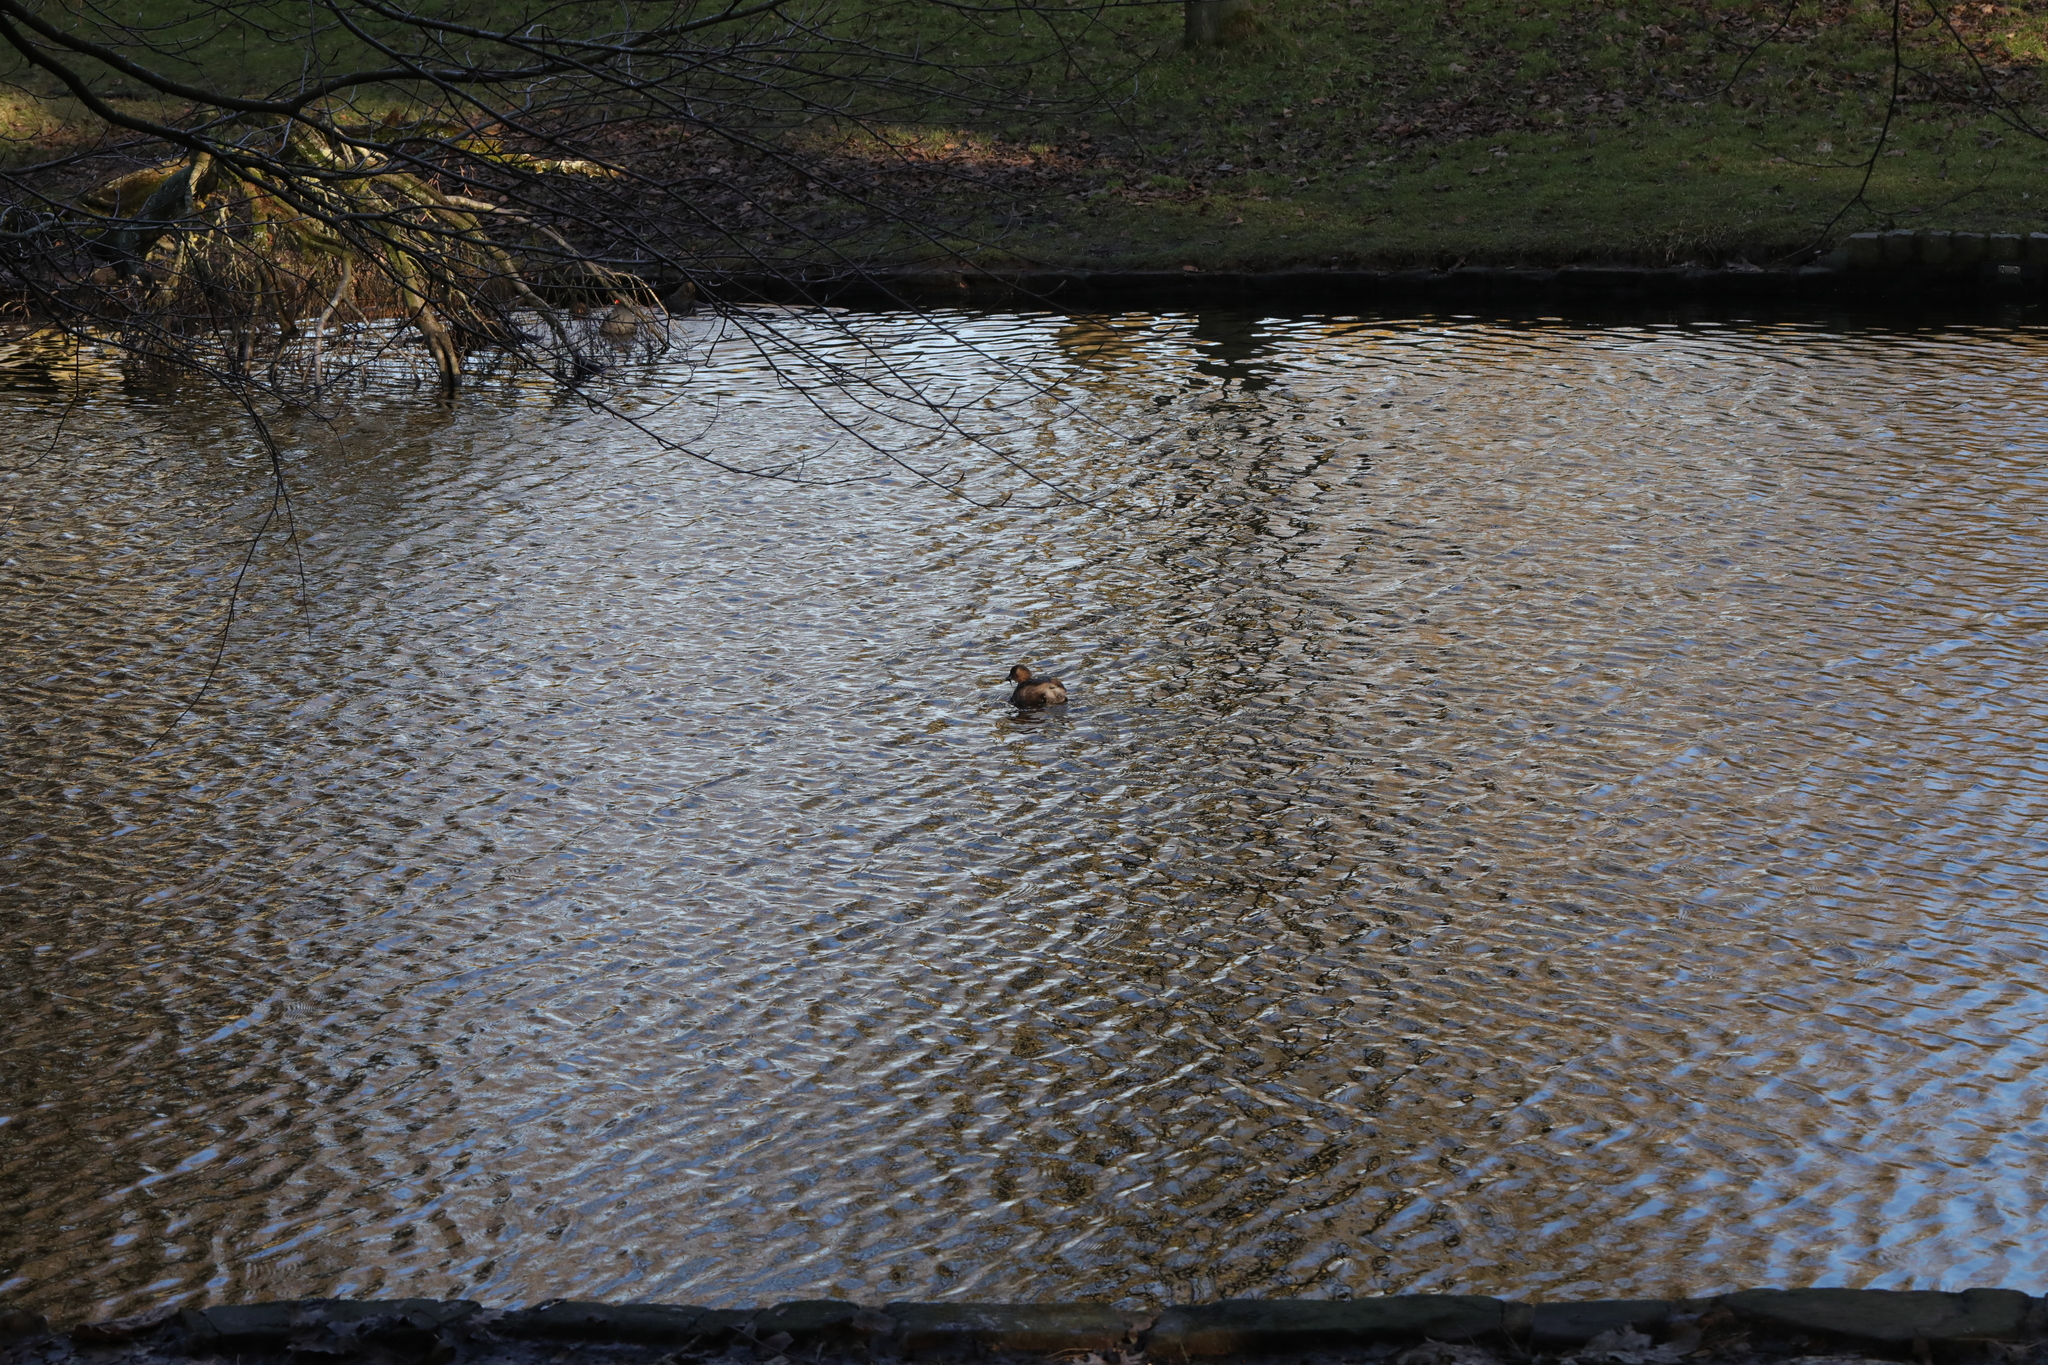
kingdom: Animalia
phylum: Chordata
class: Aves
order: Podicipediformes
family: Podicipedidae
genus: Tachybaptus
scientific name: Tachybaptus ruficollis
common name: Little grebe
